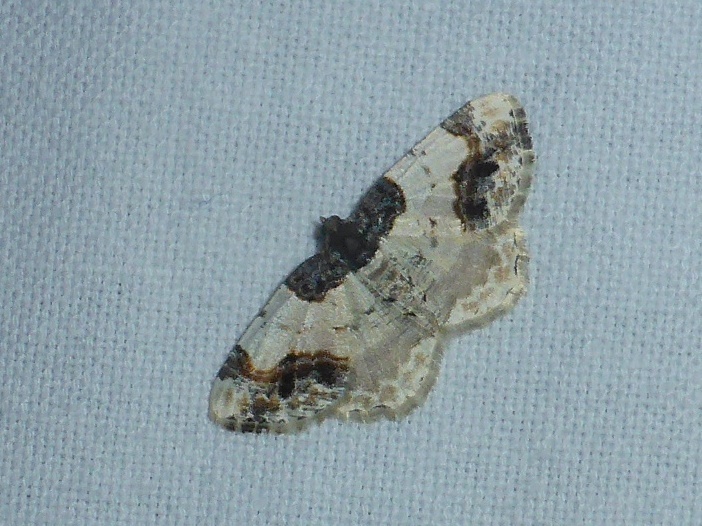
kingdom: Animalia
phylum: Arthropoda
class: Insecta
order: Lepidoptera
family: Geometridae
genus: Ligdia
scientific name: Ligdia adustata
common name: Scorched carpet
